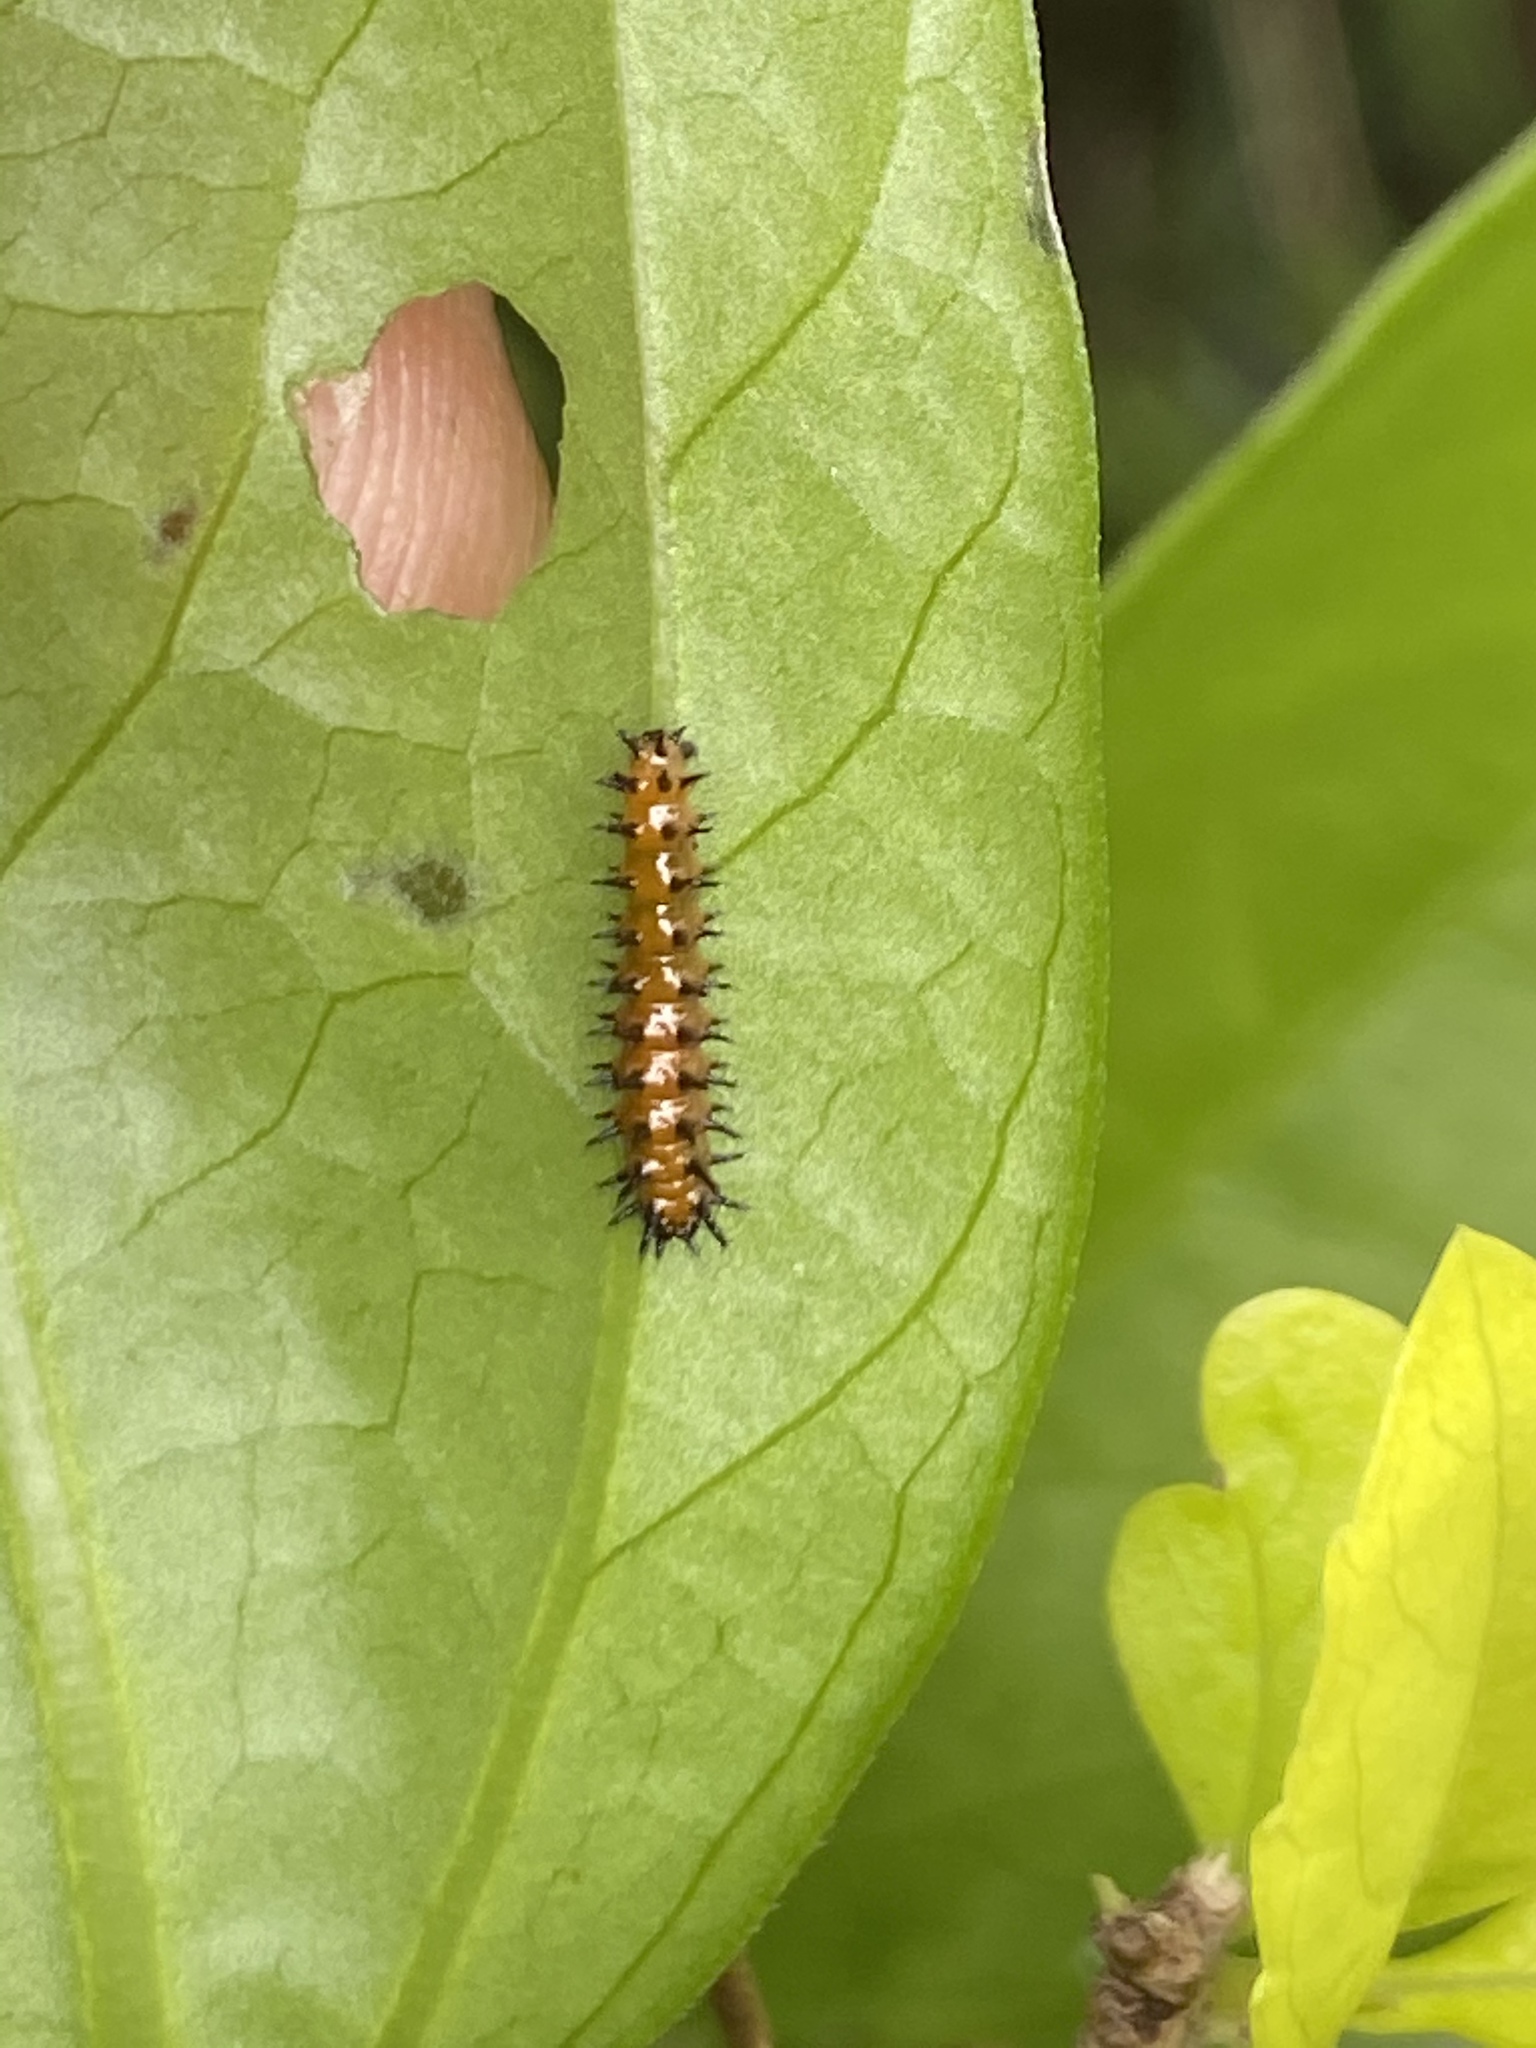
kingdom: Animalia
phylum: Arthropoda
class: Insecta
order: Lepidoptera
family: Nymphalidae
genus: Dione
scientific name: Dione vanillae
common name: Gulf fritillary
